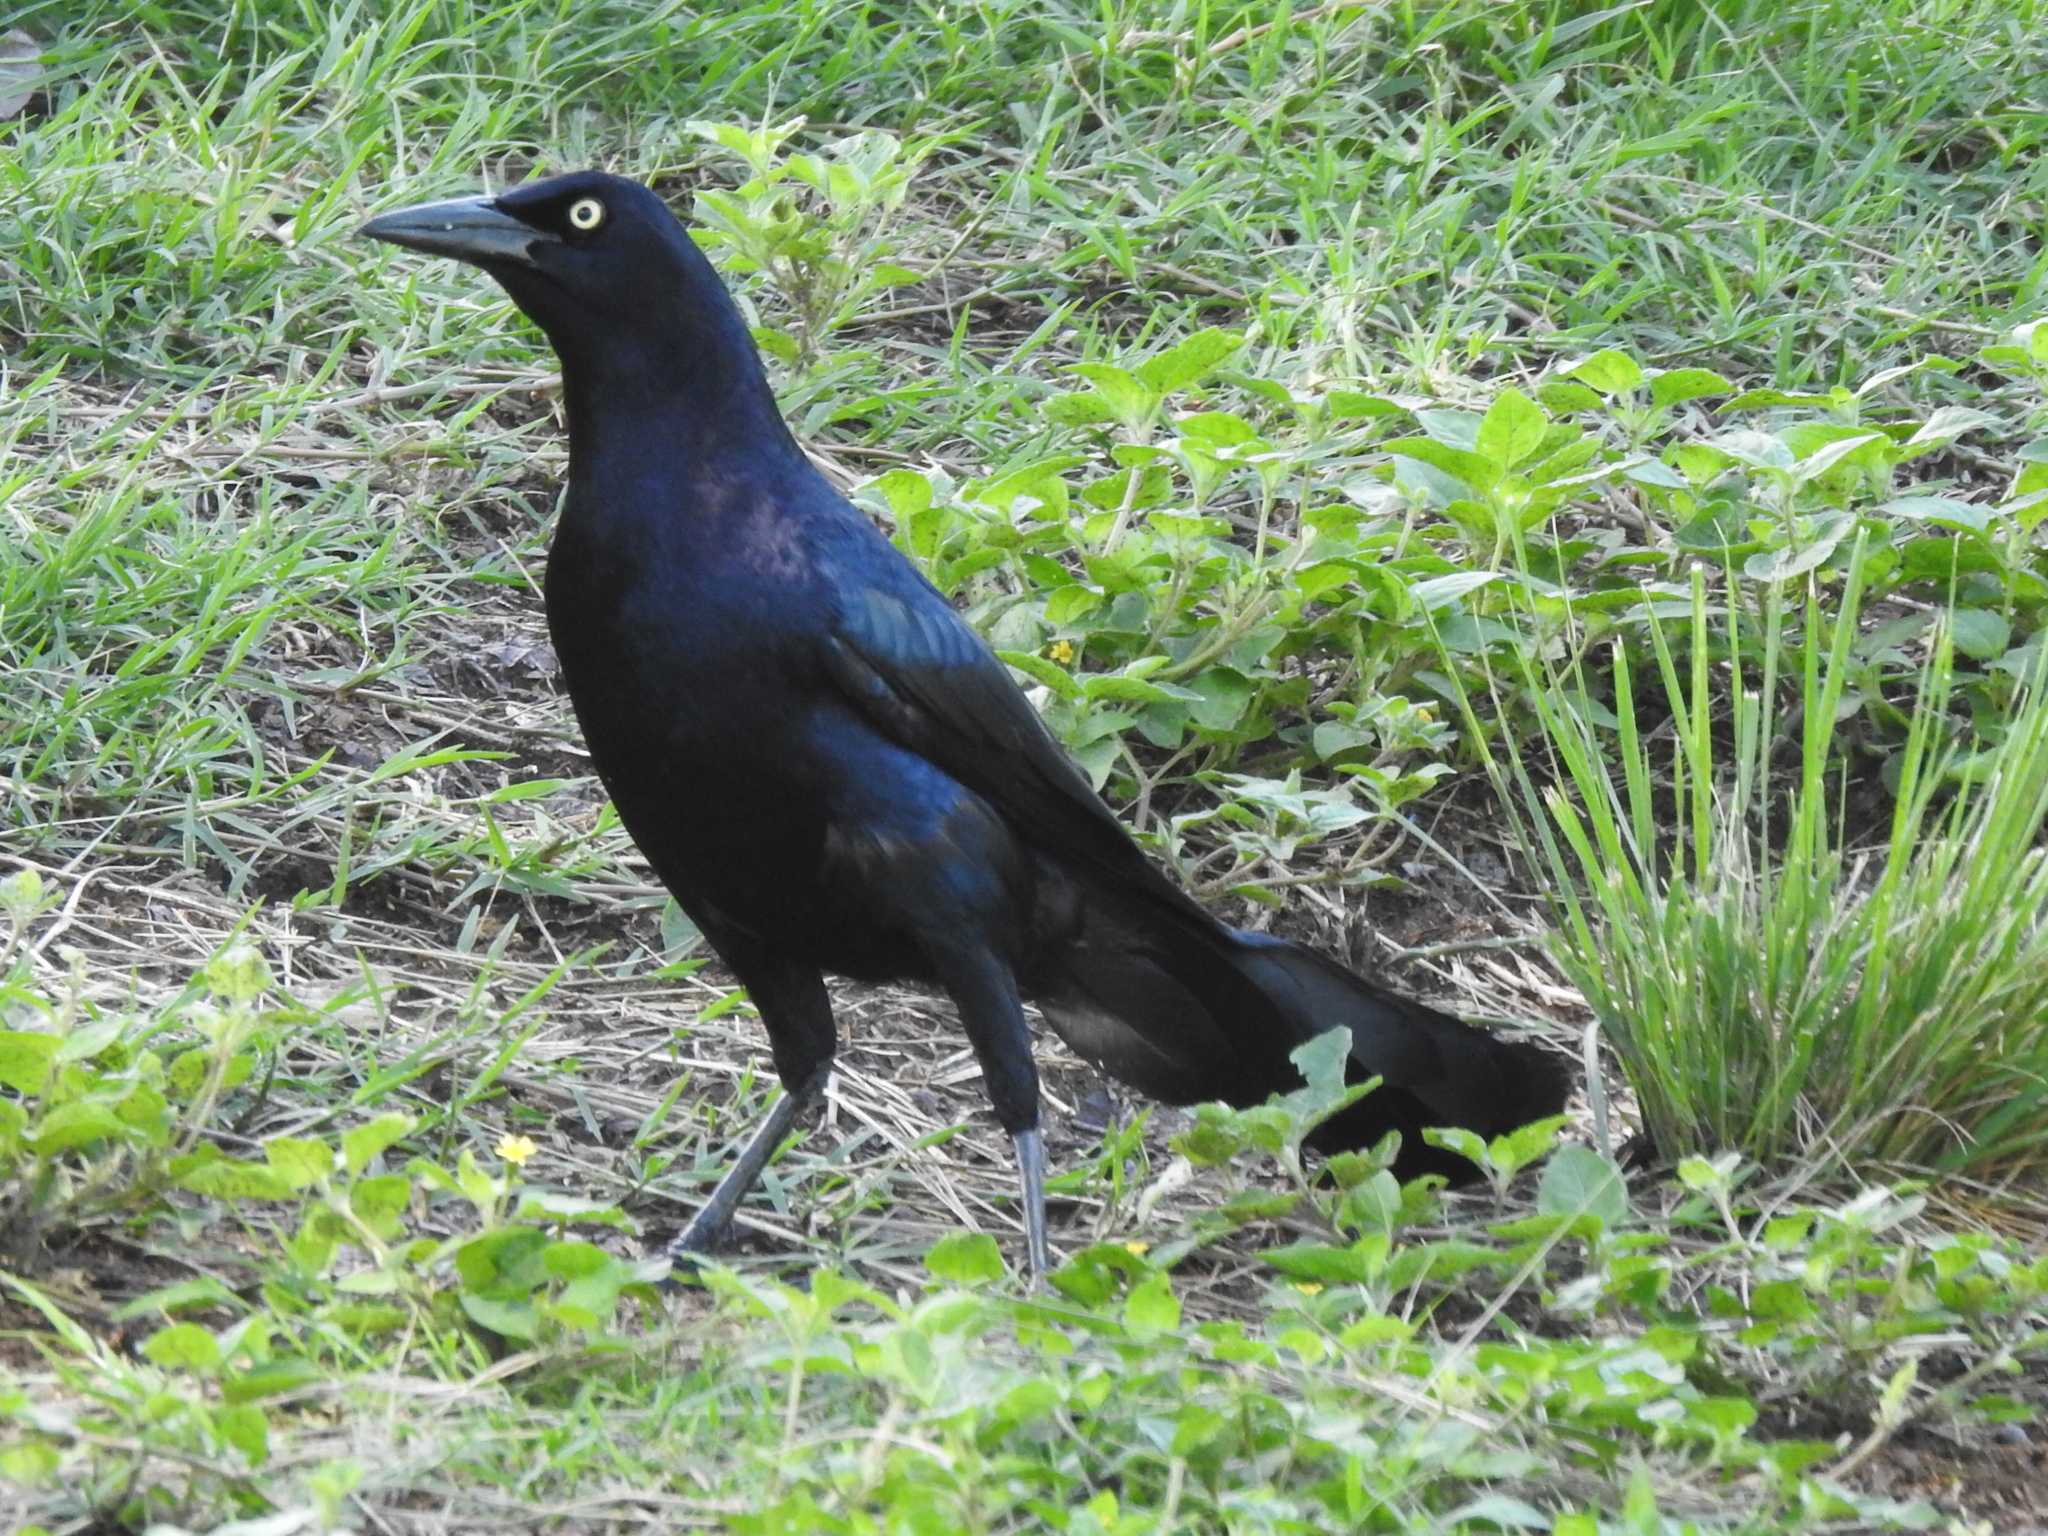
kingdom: Animalia
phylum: Chordata
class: Aves
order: Passeriformes
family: Icteridae
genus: Quiscalus
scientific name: Quiscalus mexicanus
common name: Great-tailed grackle
